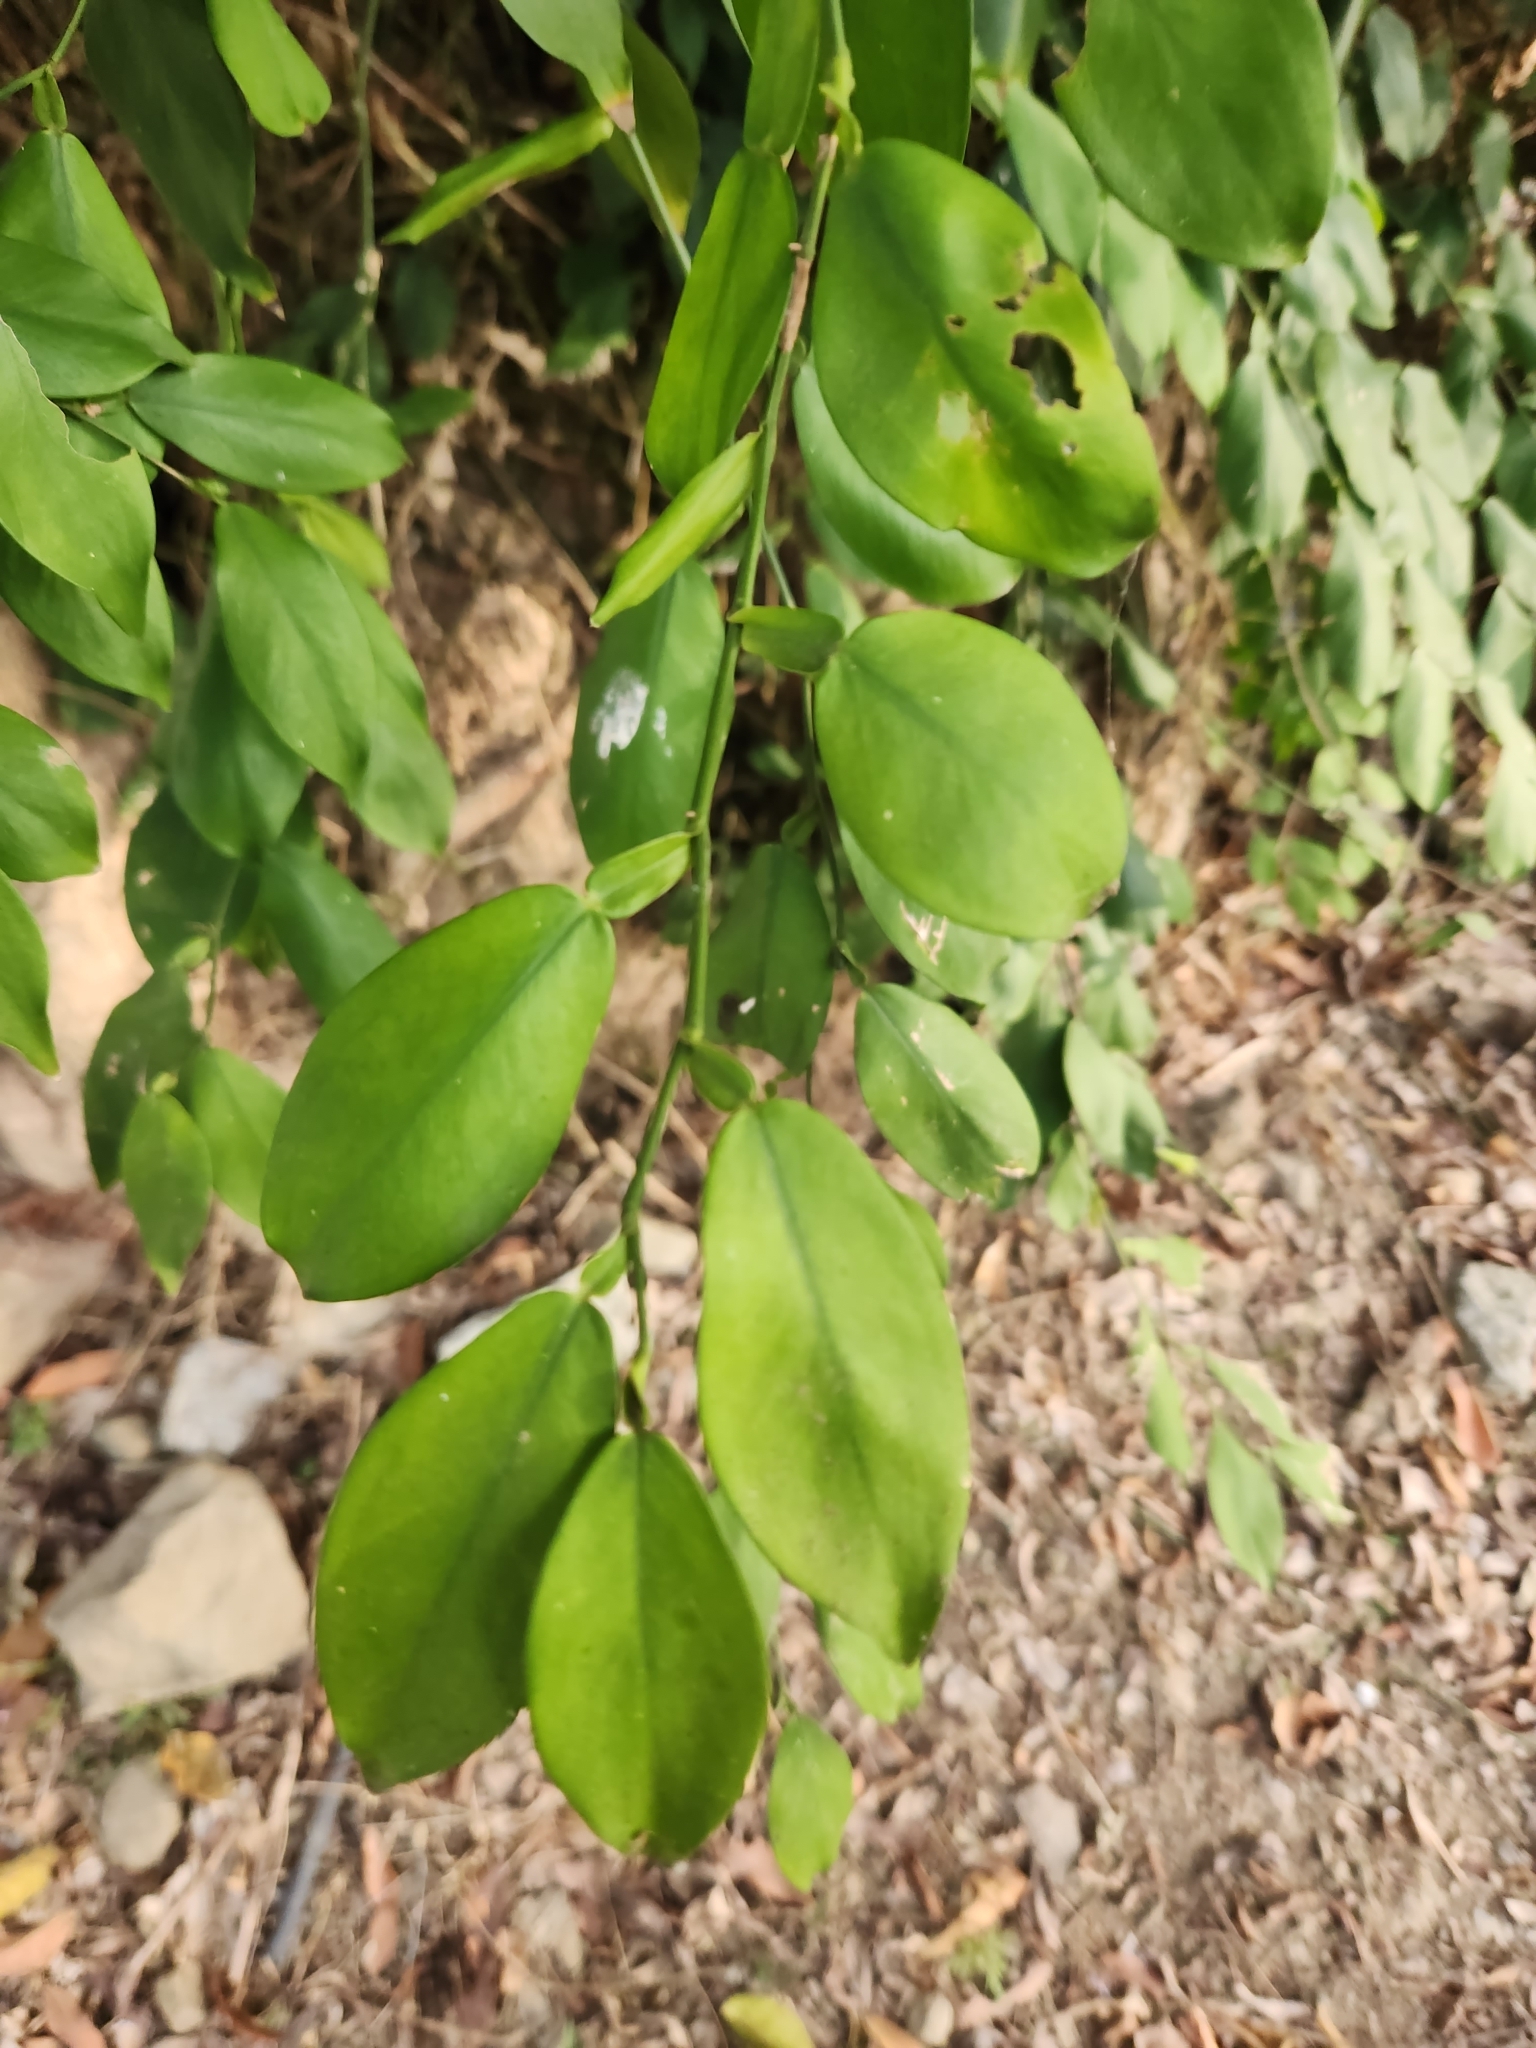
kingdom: Plantae
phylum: Tracheophyta
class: Liliopsida
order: Alismatales
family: Araceae
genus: Pothos
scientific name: Pothos chinensis
